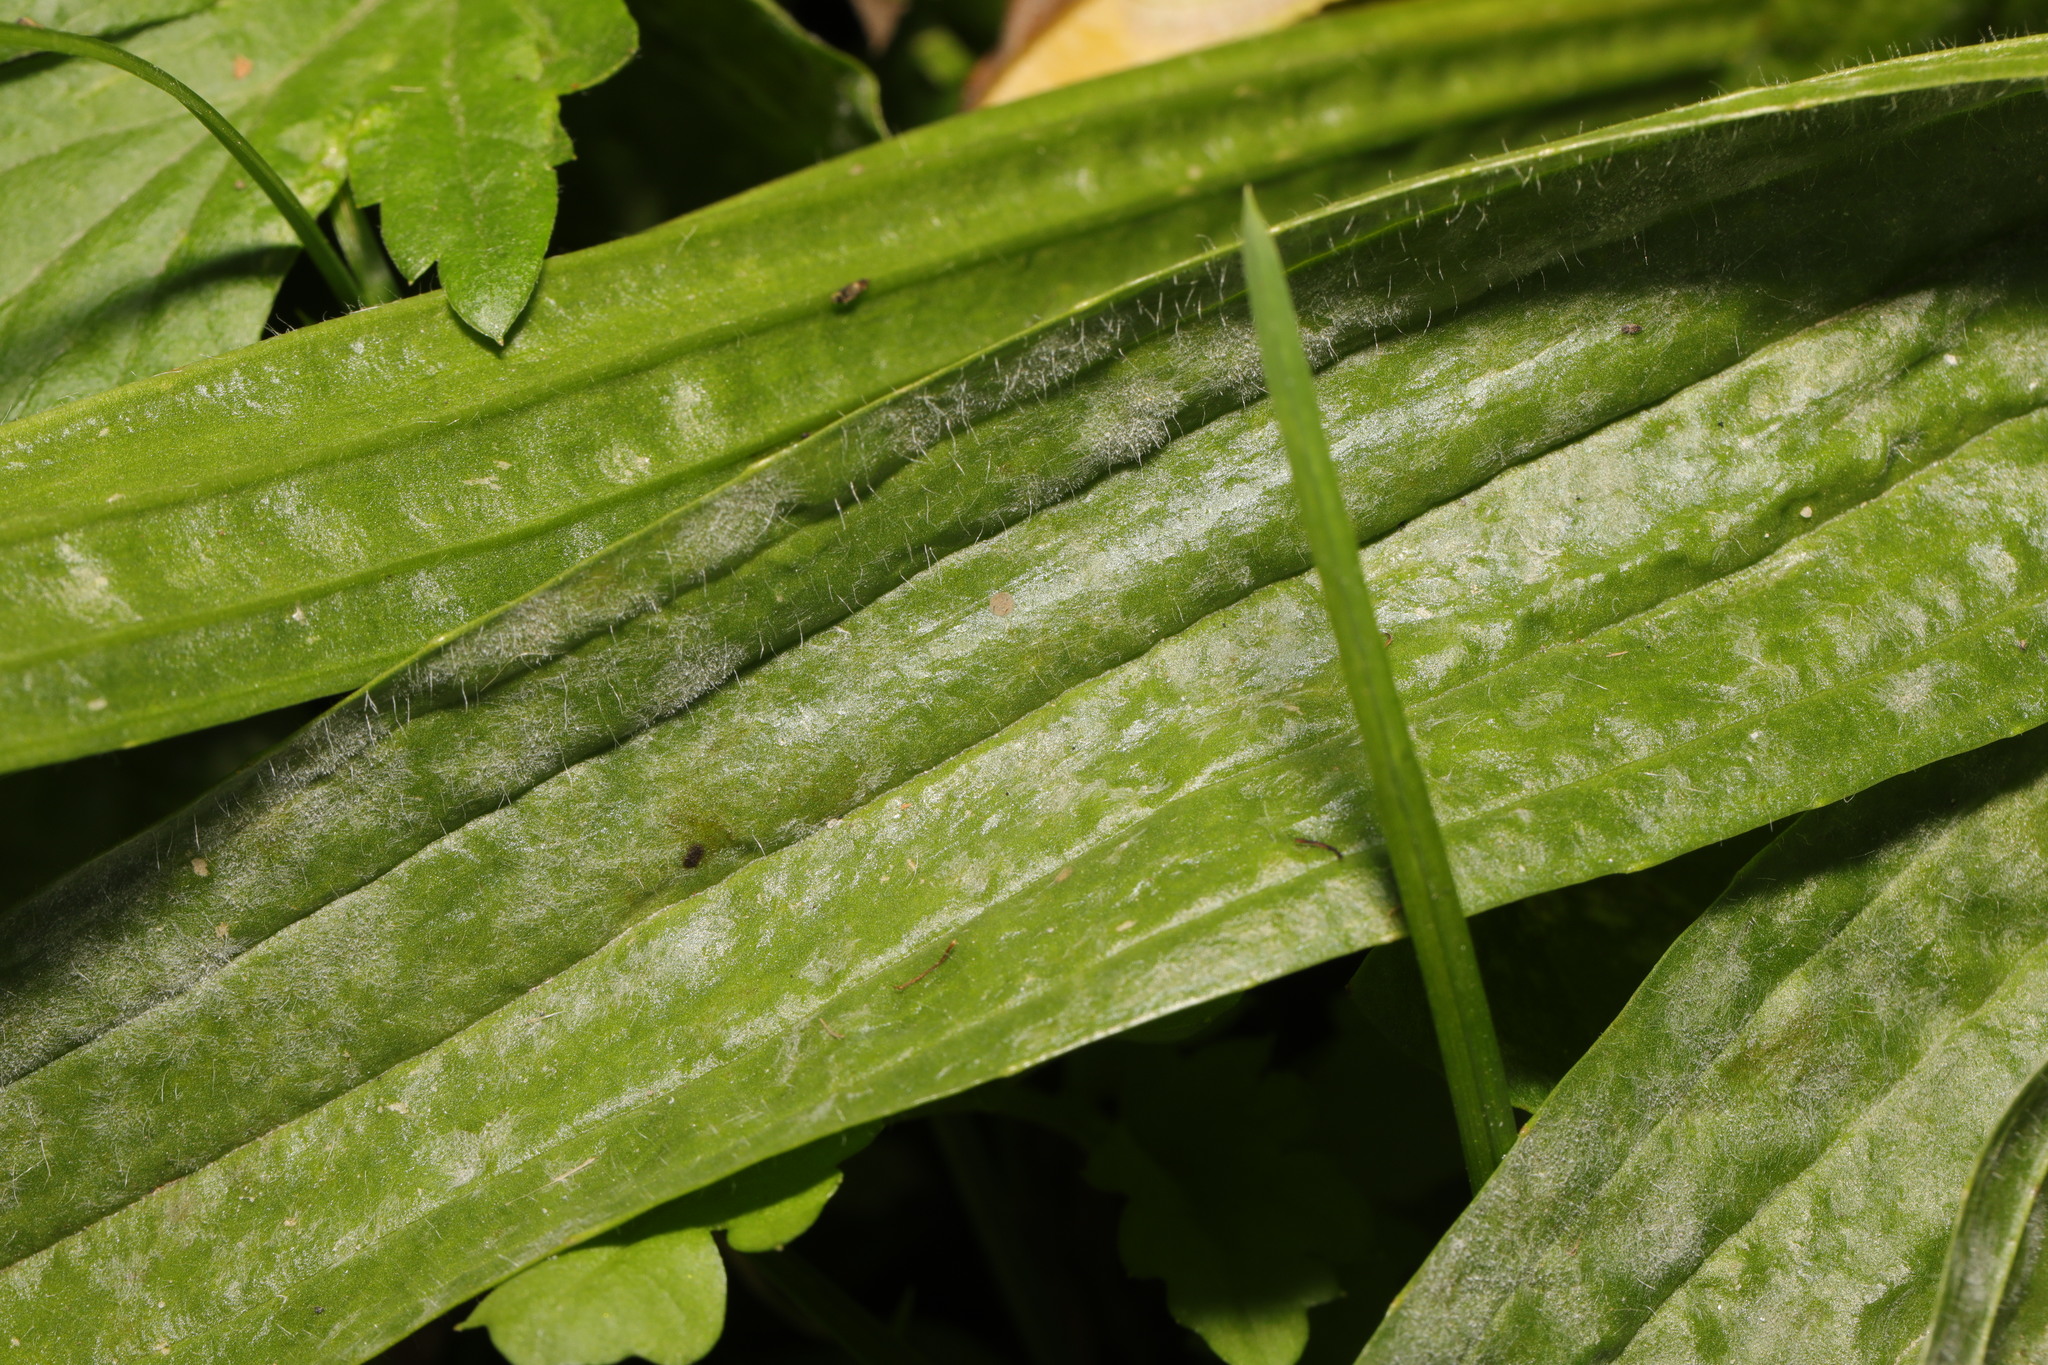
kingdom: Fungi
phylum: Ascomycota
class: Leotiomycetes
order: Helotiales
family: Erysiphaceae
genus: Golovinomyces
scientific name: Golovinomyces sordidus
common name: Plantain mildew
